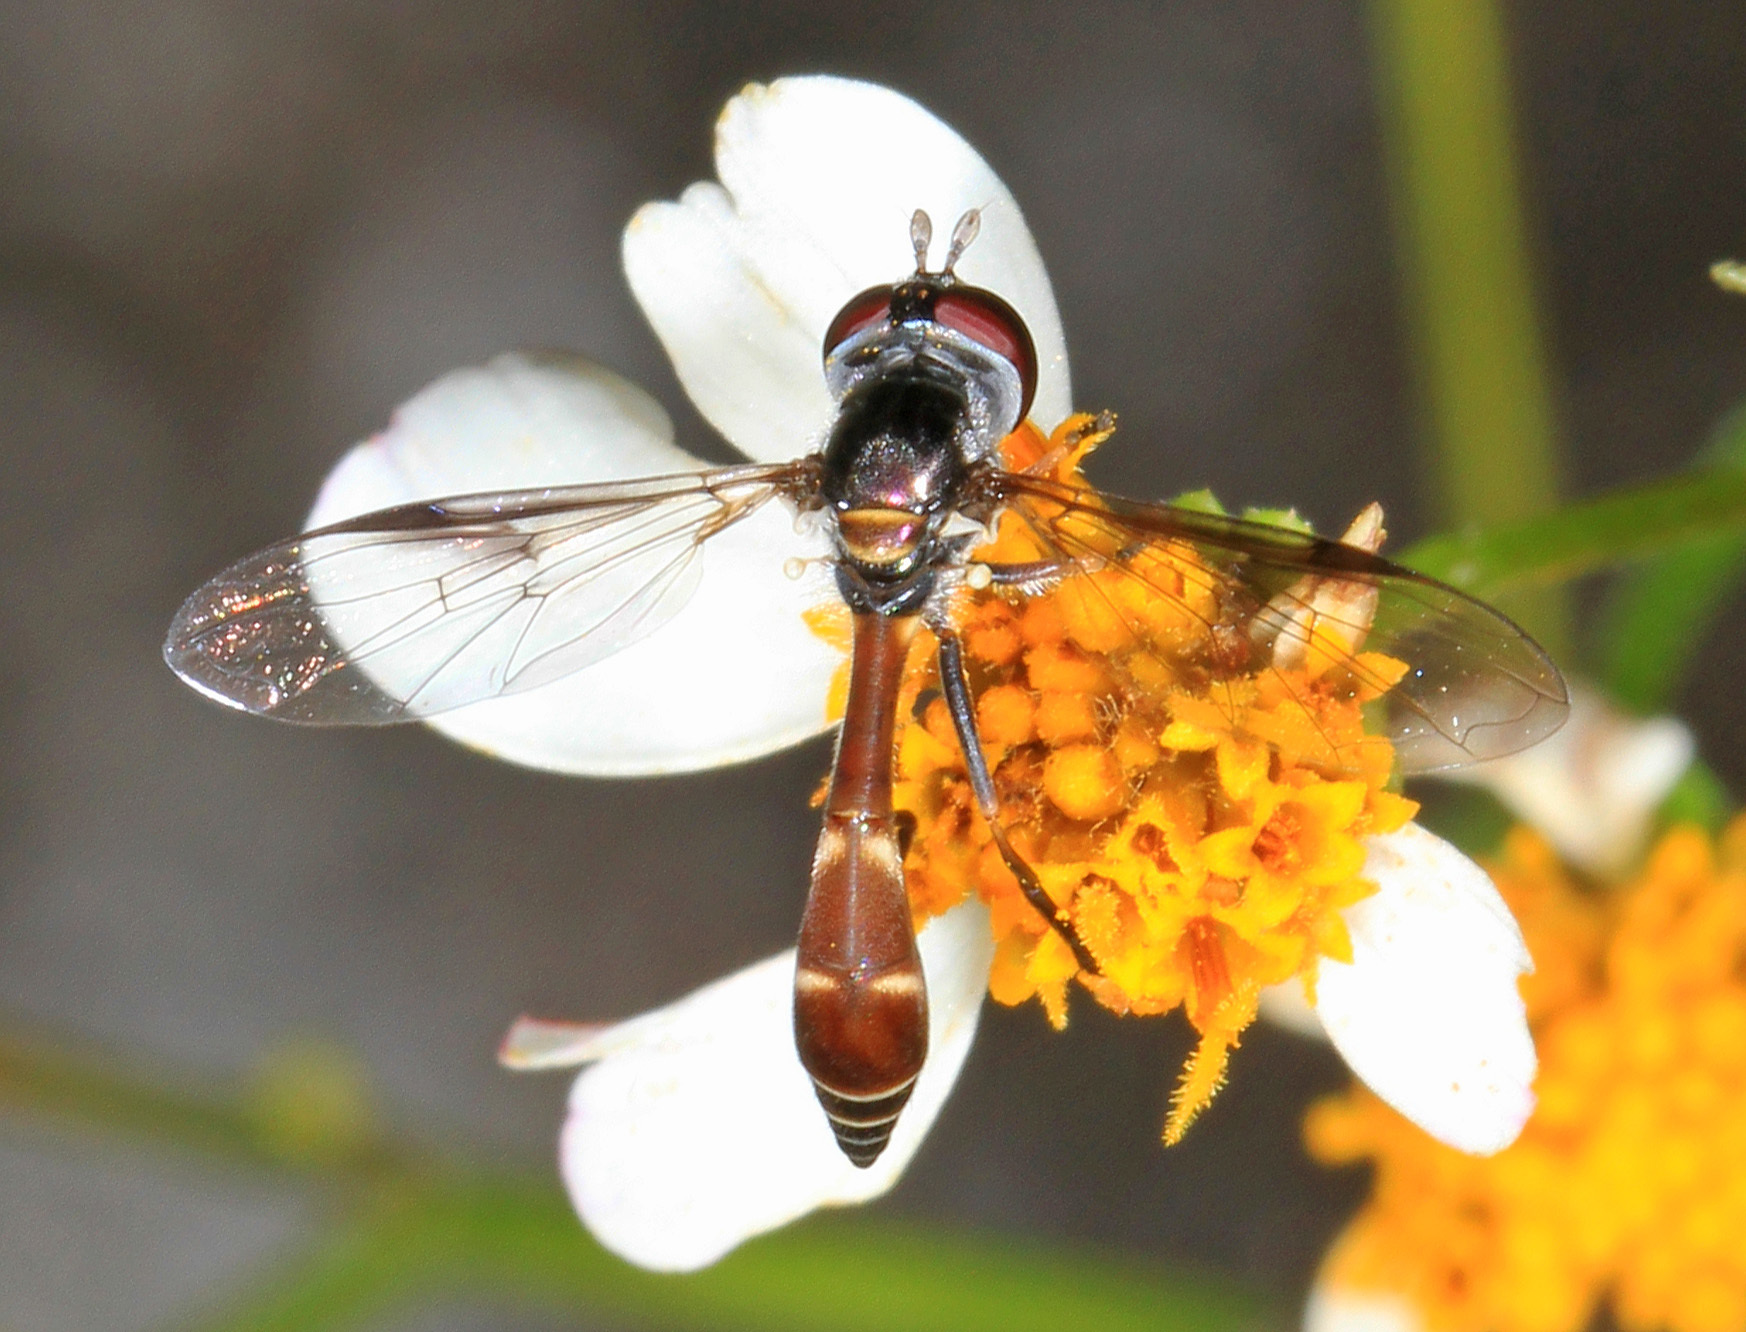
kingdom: Animalia
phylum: Arthropoda
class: Insecta
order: Diptera
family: Syrphidae
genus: Dioprosopa
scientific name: Dioprosopa clavatus
